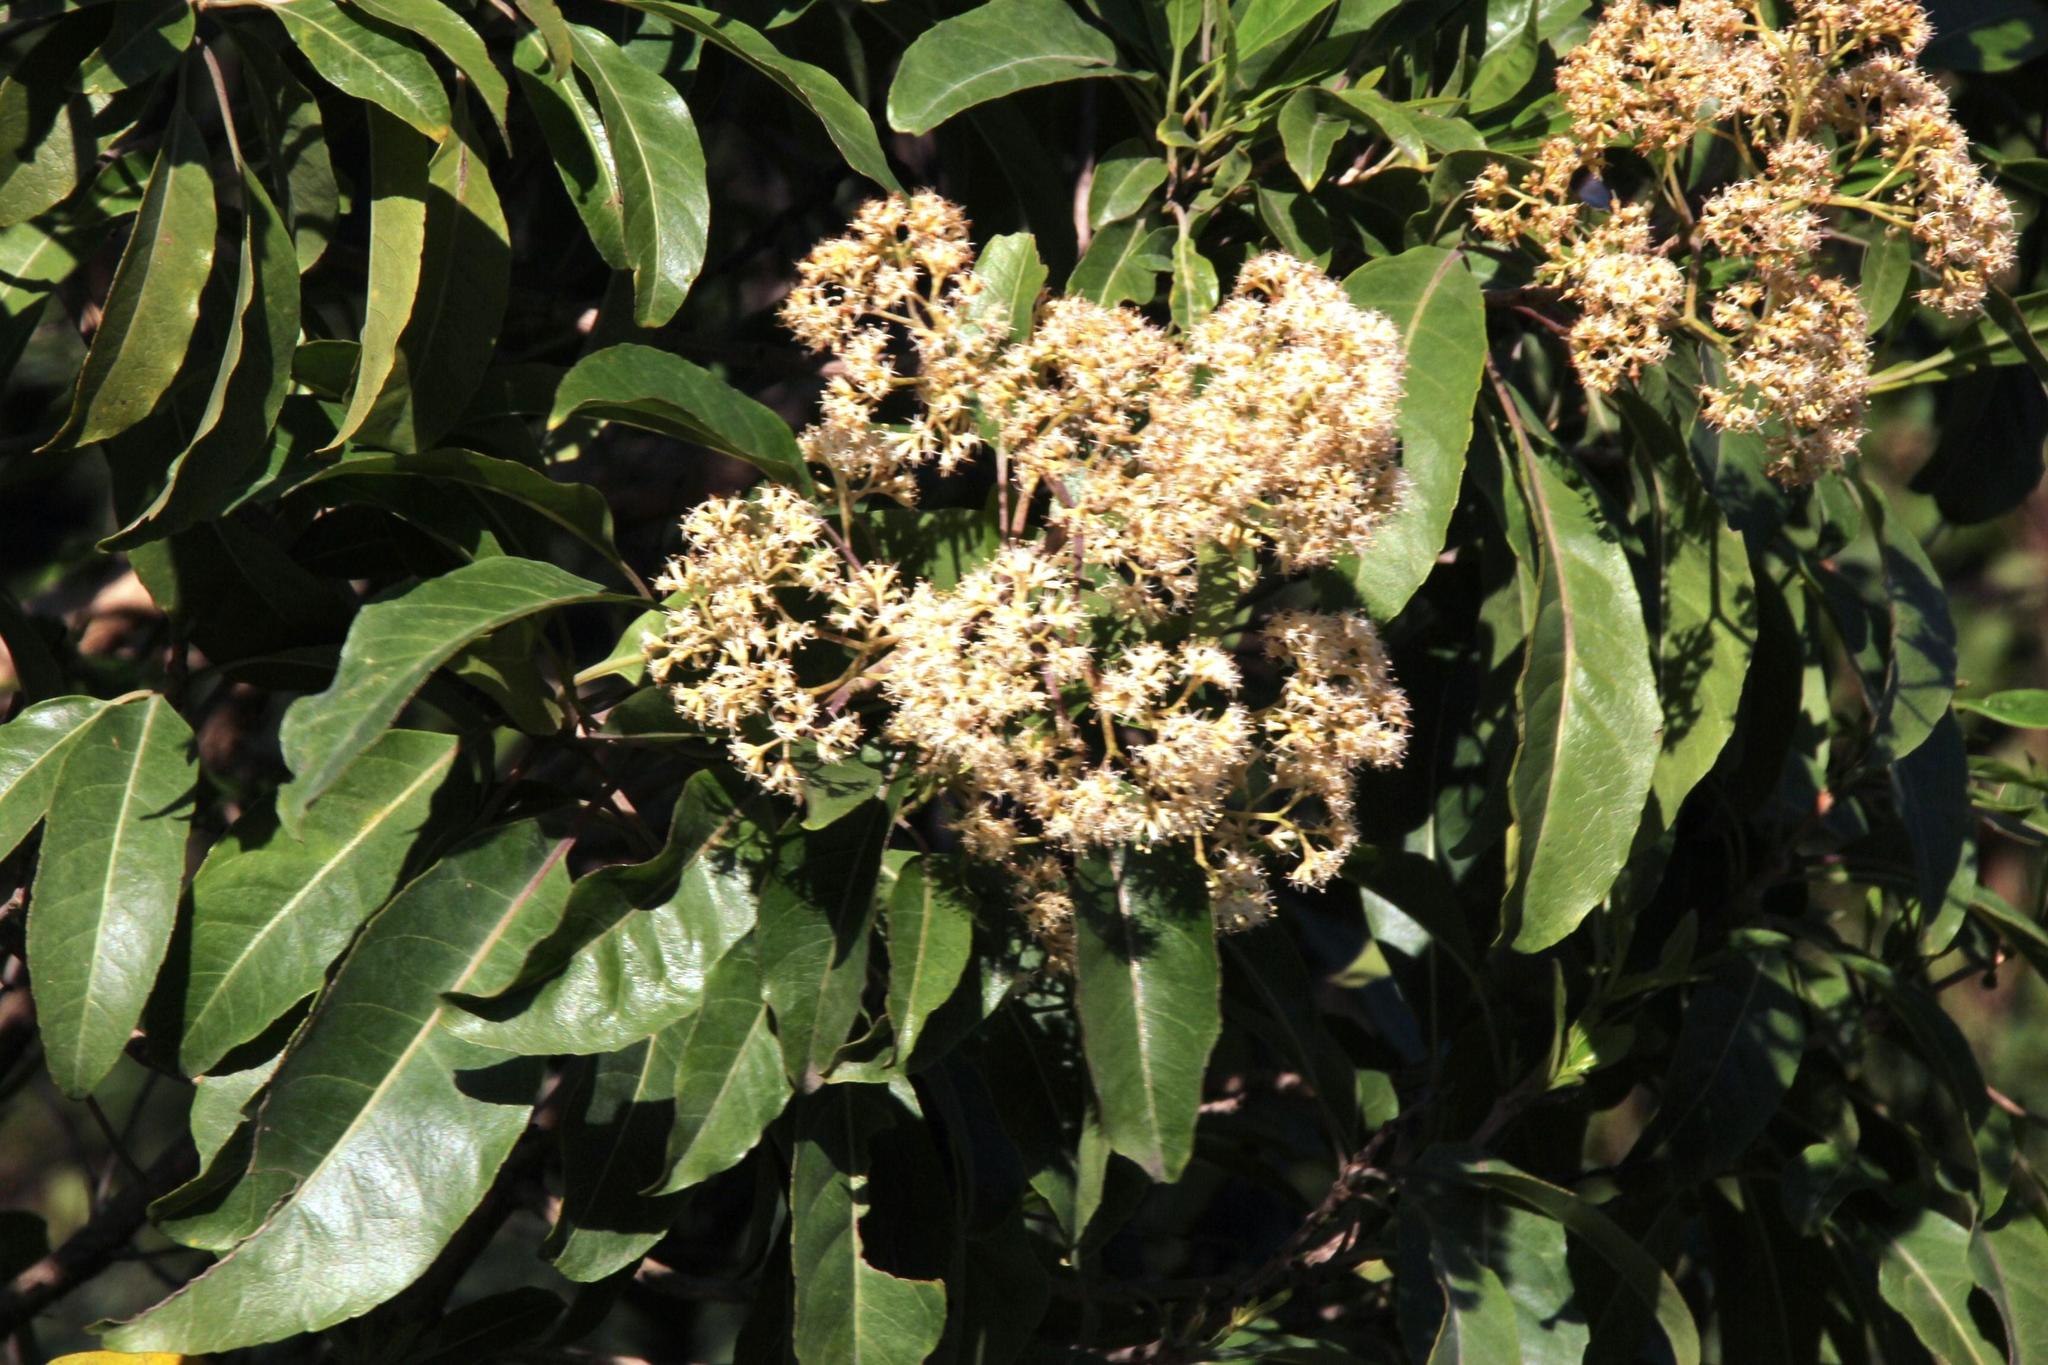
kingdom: Plantae
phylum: Tracheophyta
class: Magnoliopsida
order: Lamiales
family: Stilbaceae
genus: Nuxia
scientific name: Nuxia floribunda
